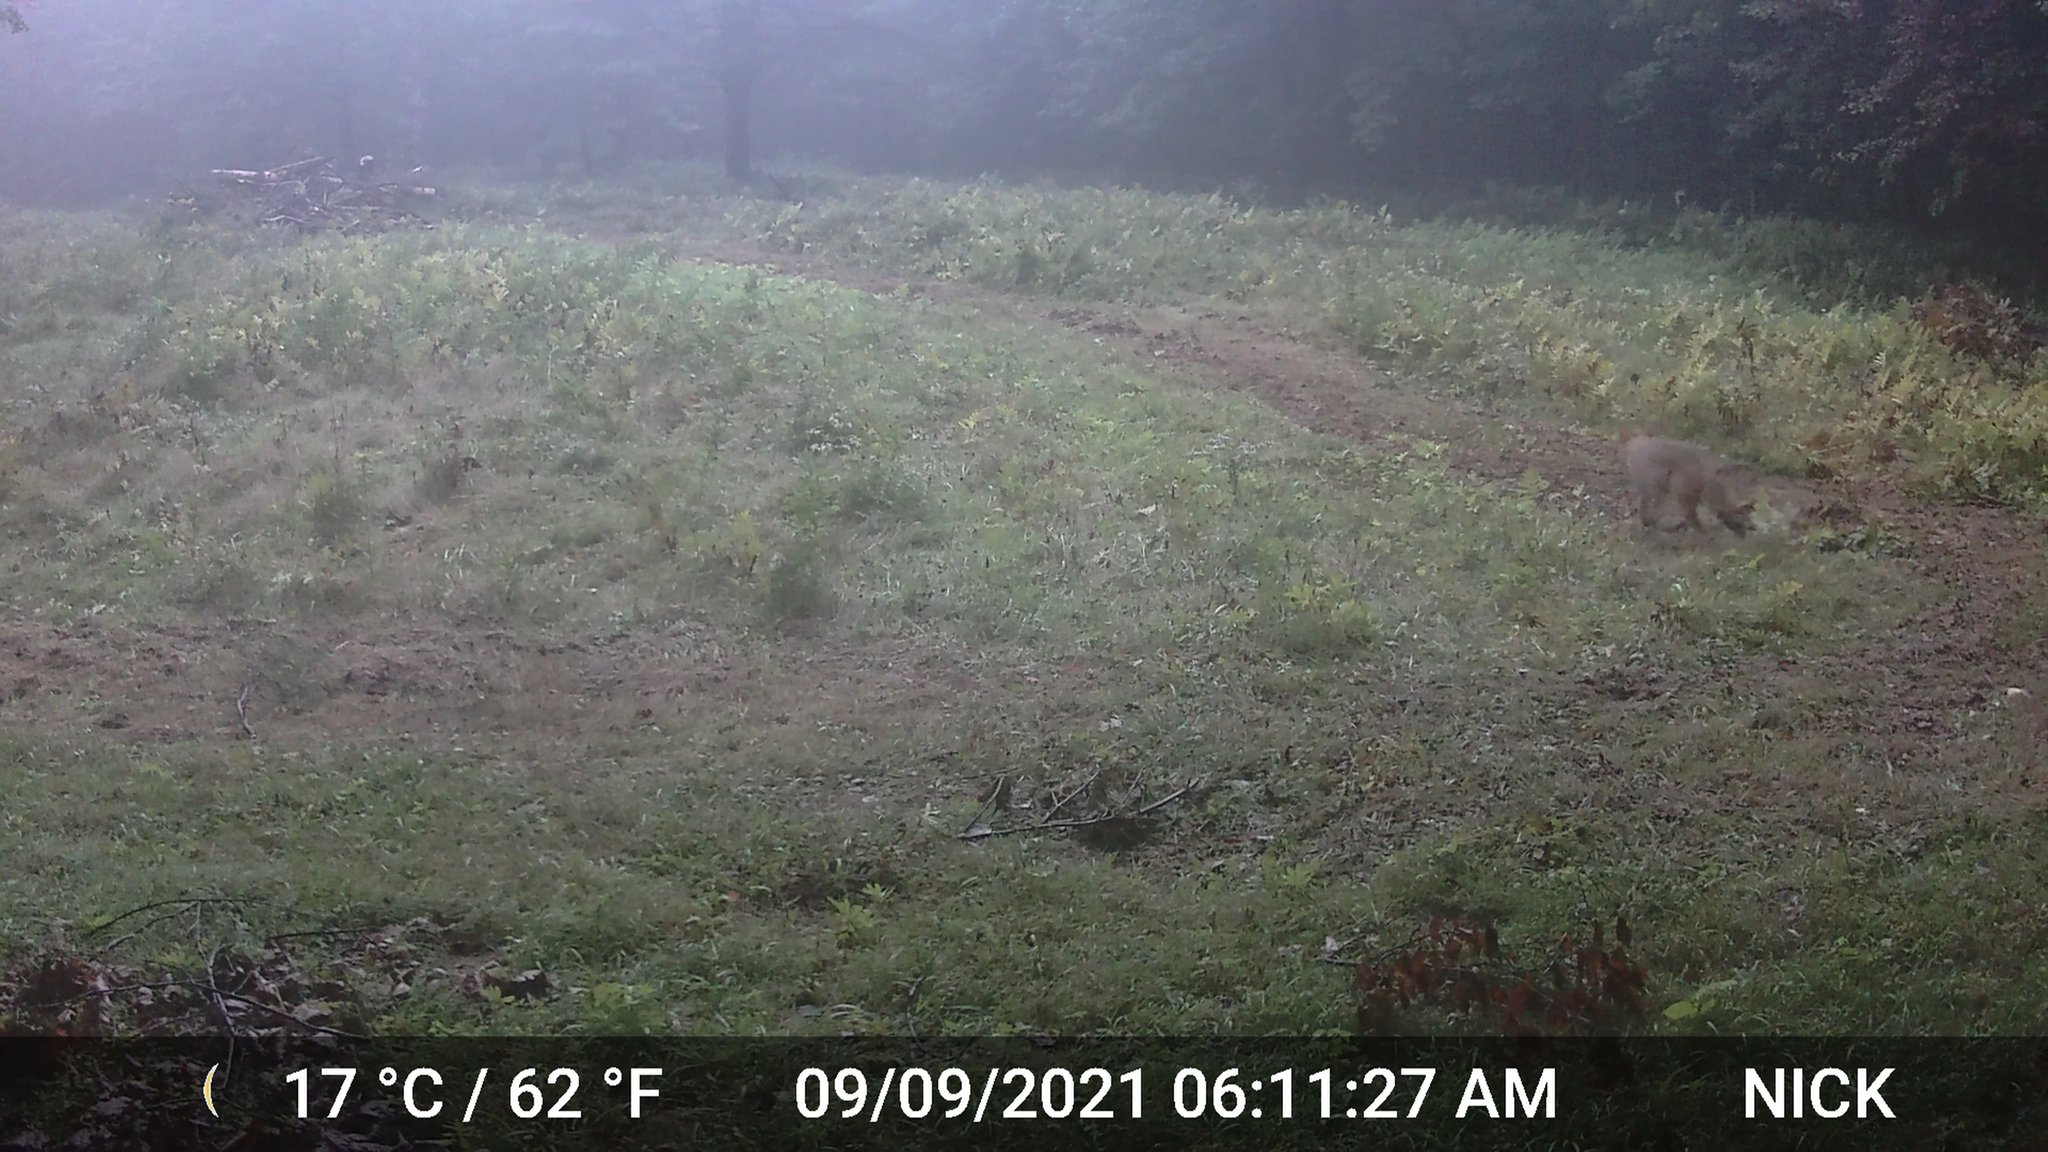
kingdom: Animalia
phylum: Chordata
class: Mammalia
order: Carnivora
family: Canidae
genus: Canis
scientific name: Canis latrans
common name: Coyote
